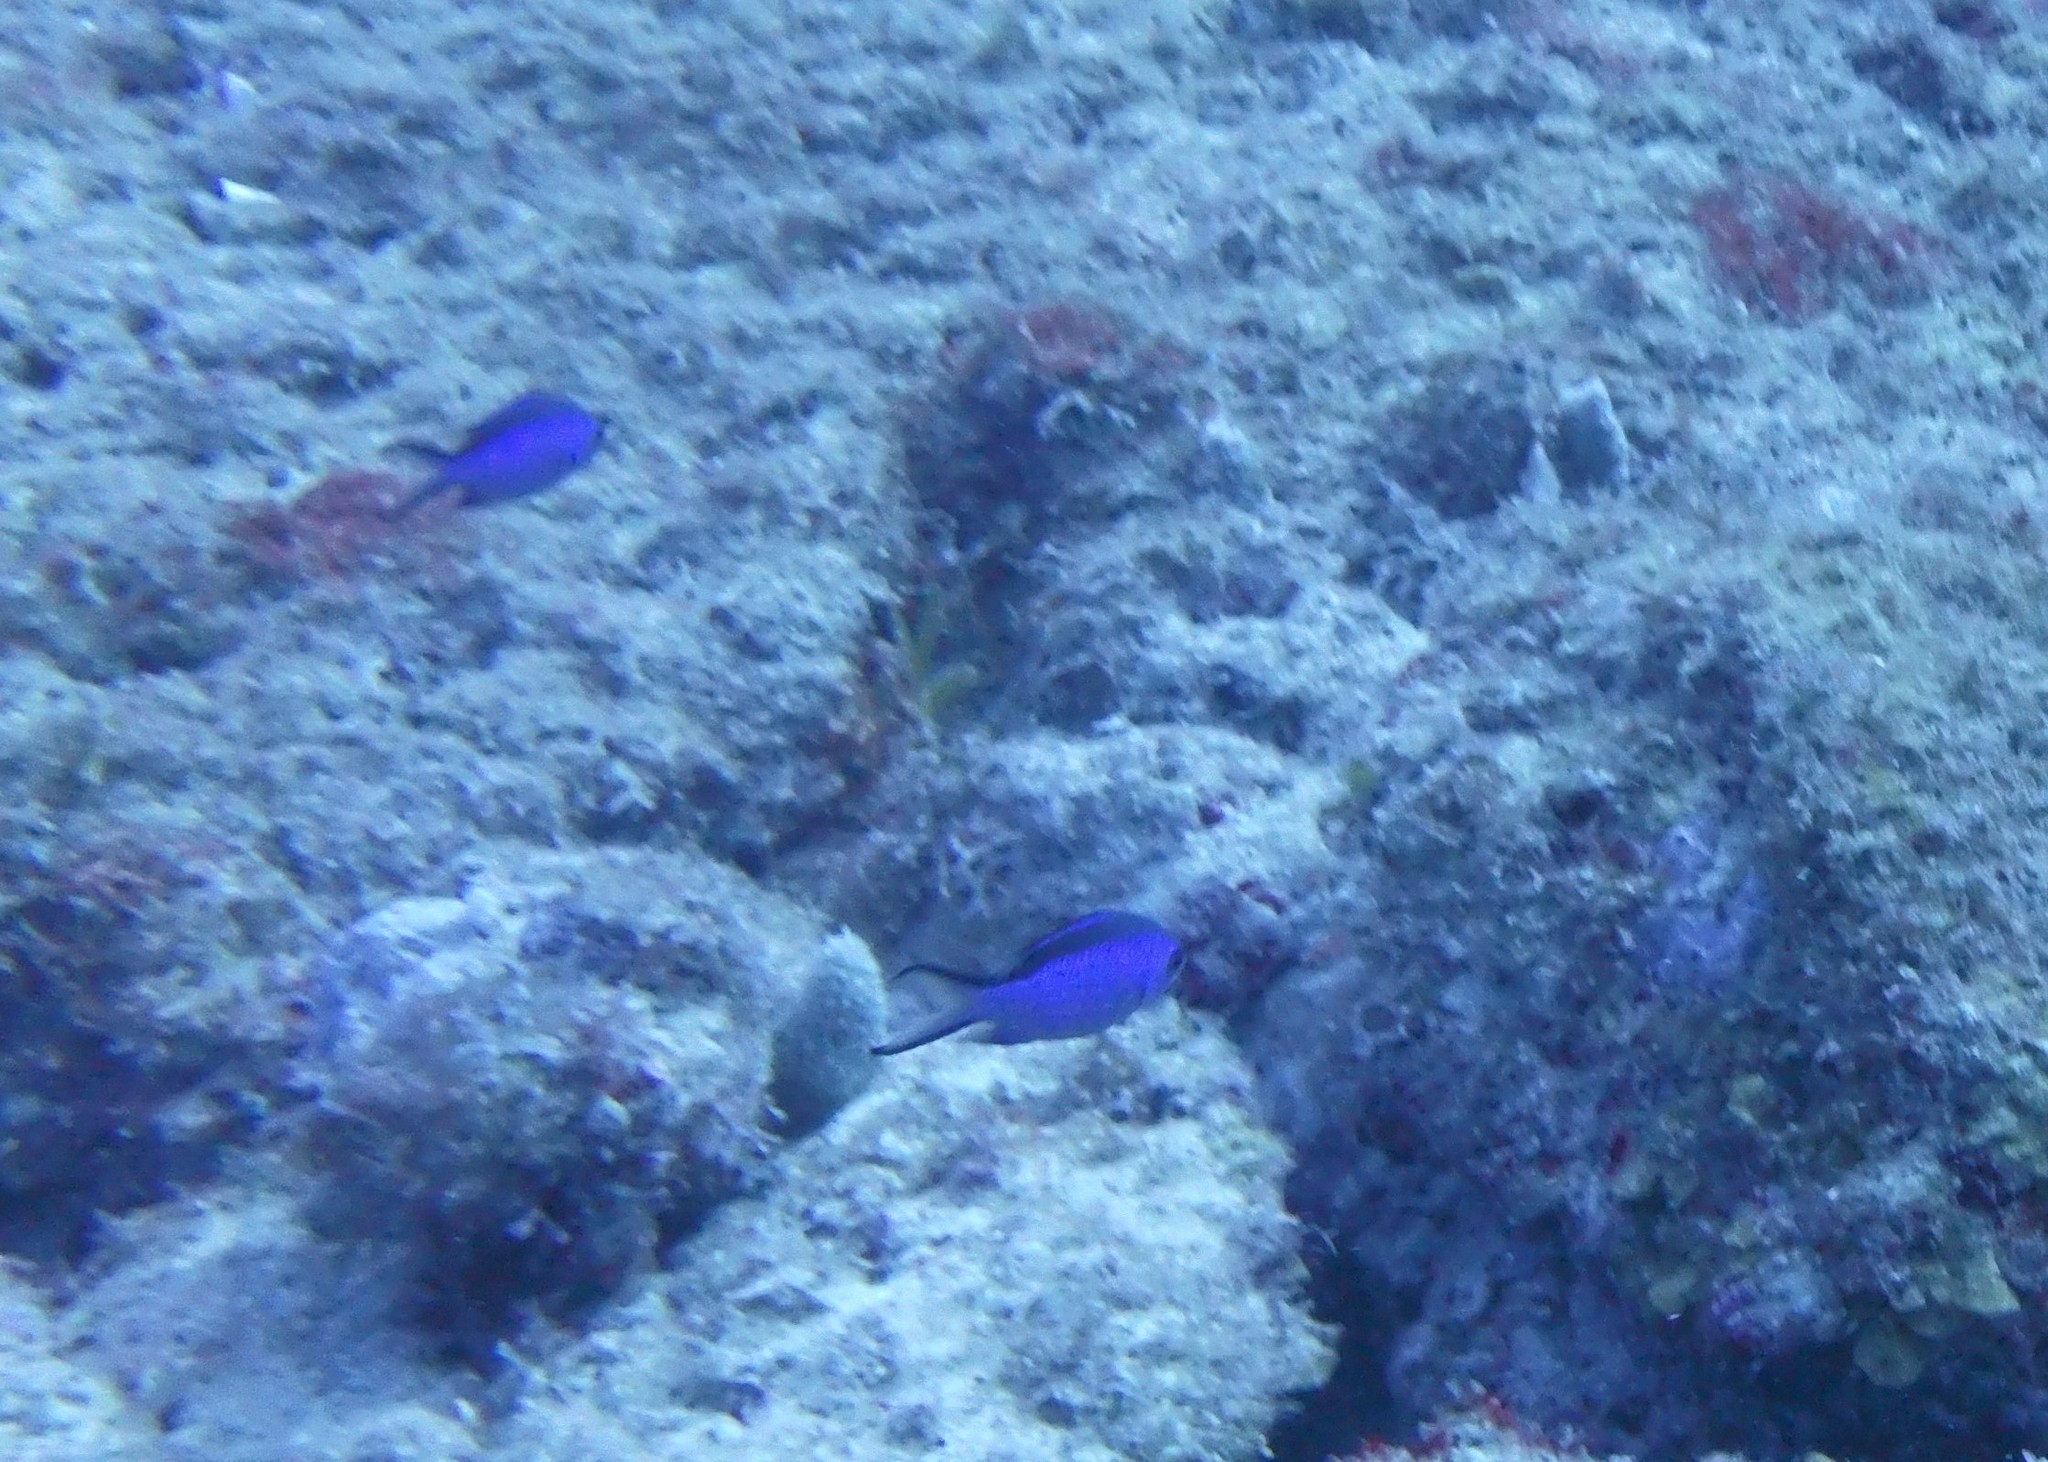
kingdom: Animalia
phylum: Chordata
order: Perciformes
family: Pomacentridae
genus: Chromis
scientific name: Chromis cyanea
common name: Blue chromis
